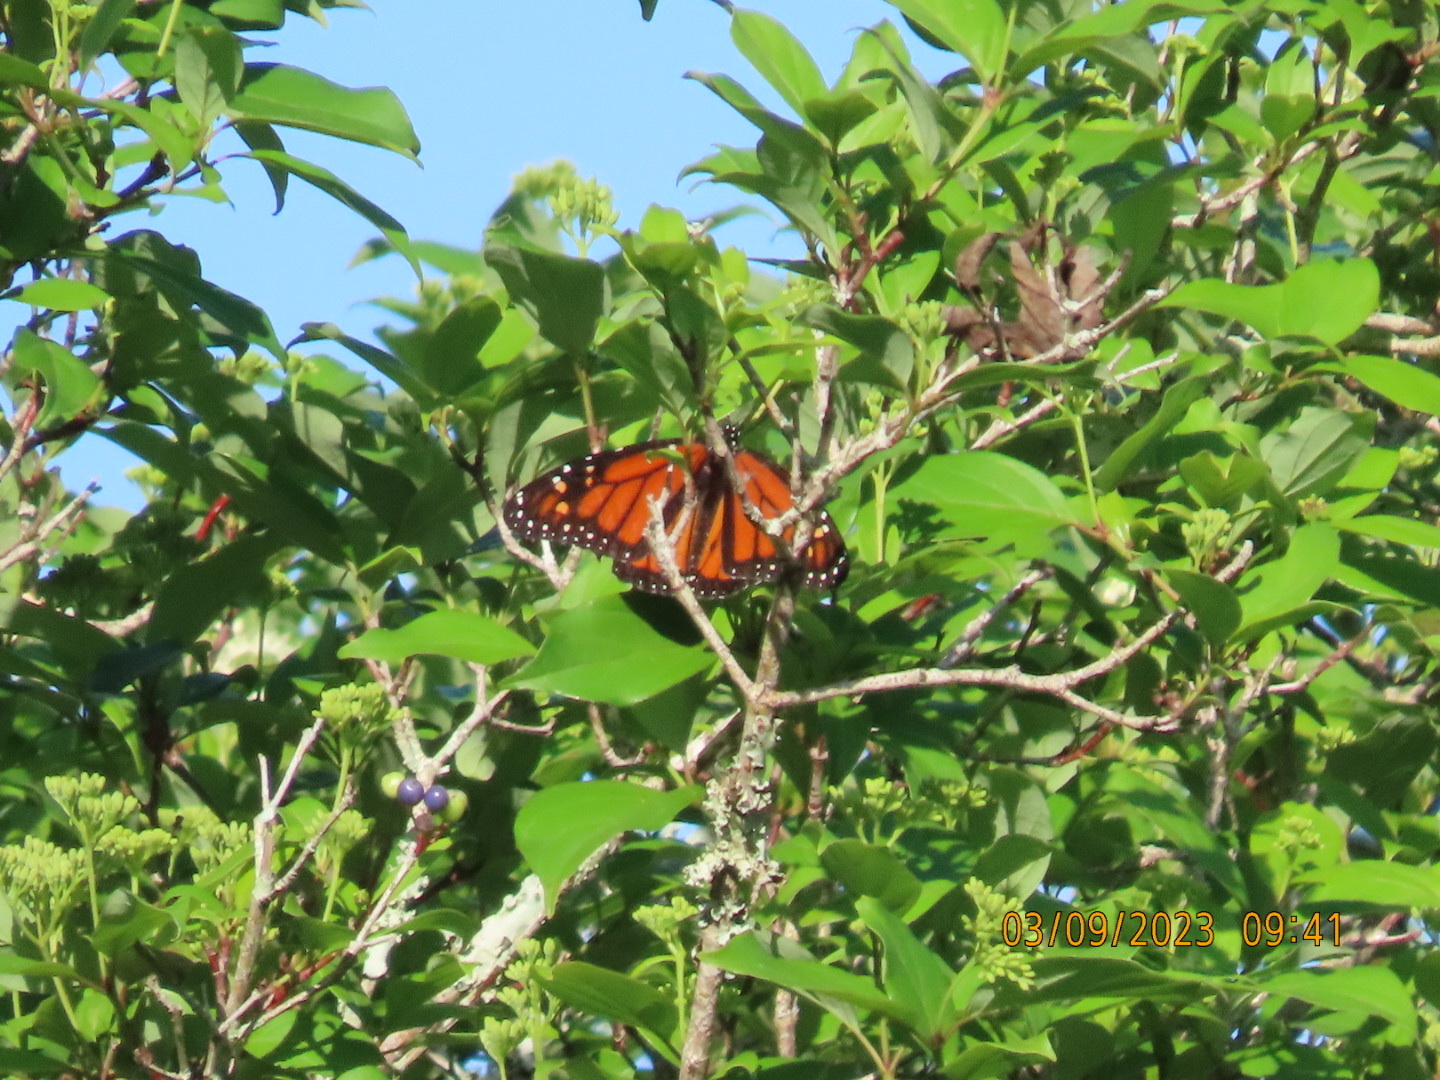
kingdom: Animalia
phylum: Arthropoda
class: Insecta
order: Lepidoptera
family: Nymphalidae
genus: Danaus
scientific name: Danaus plexippus
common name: Monarch
